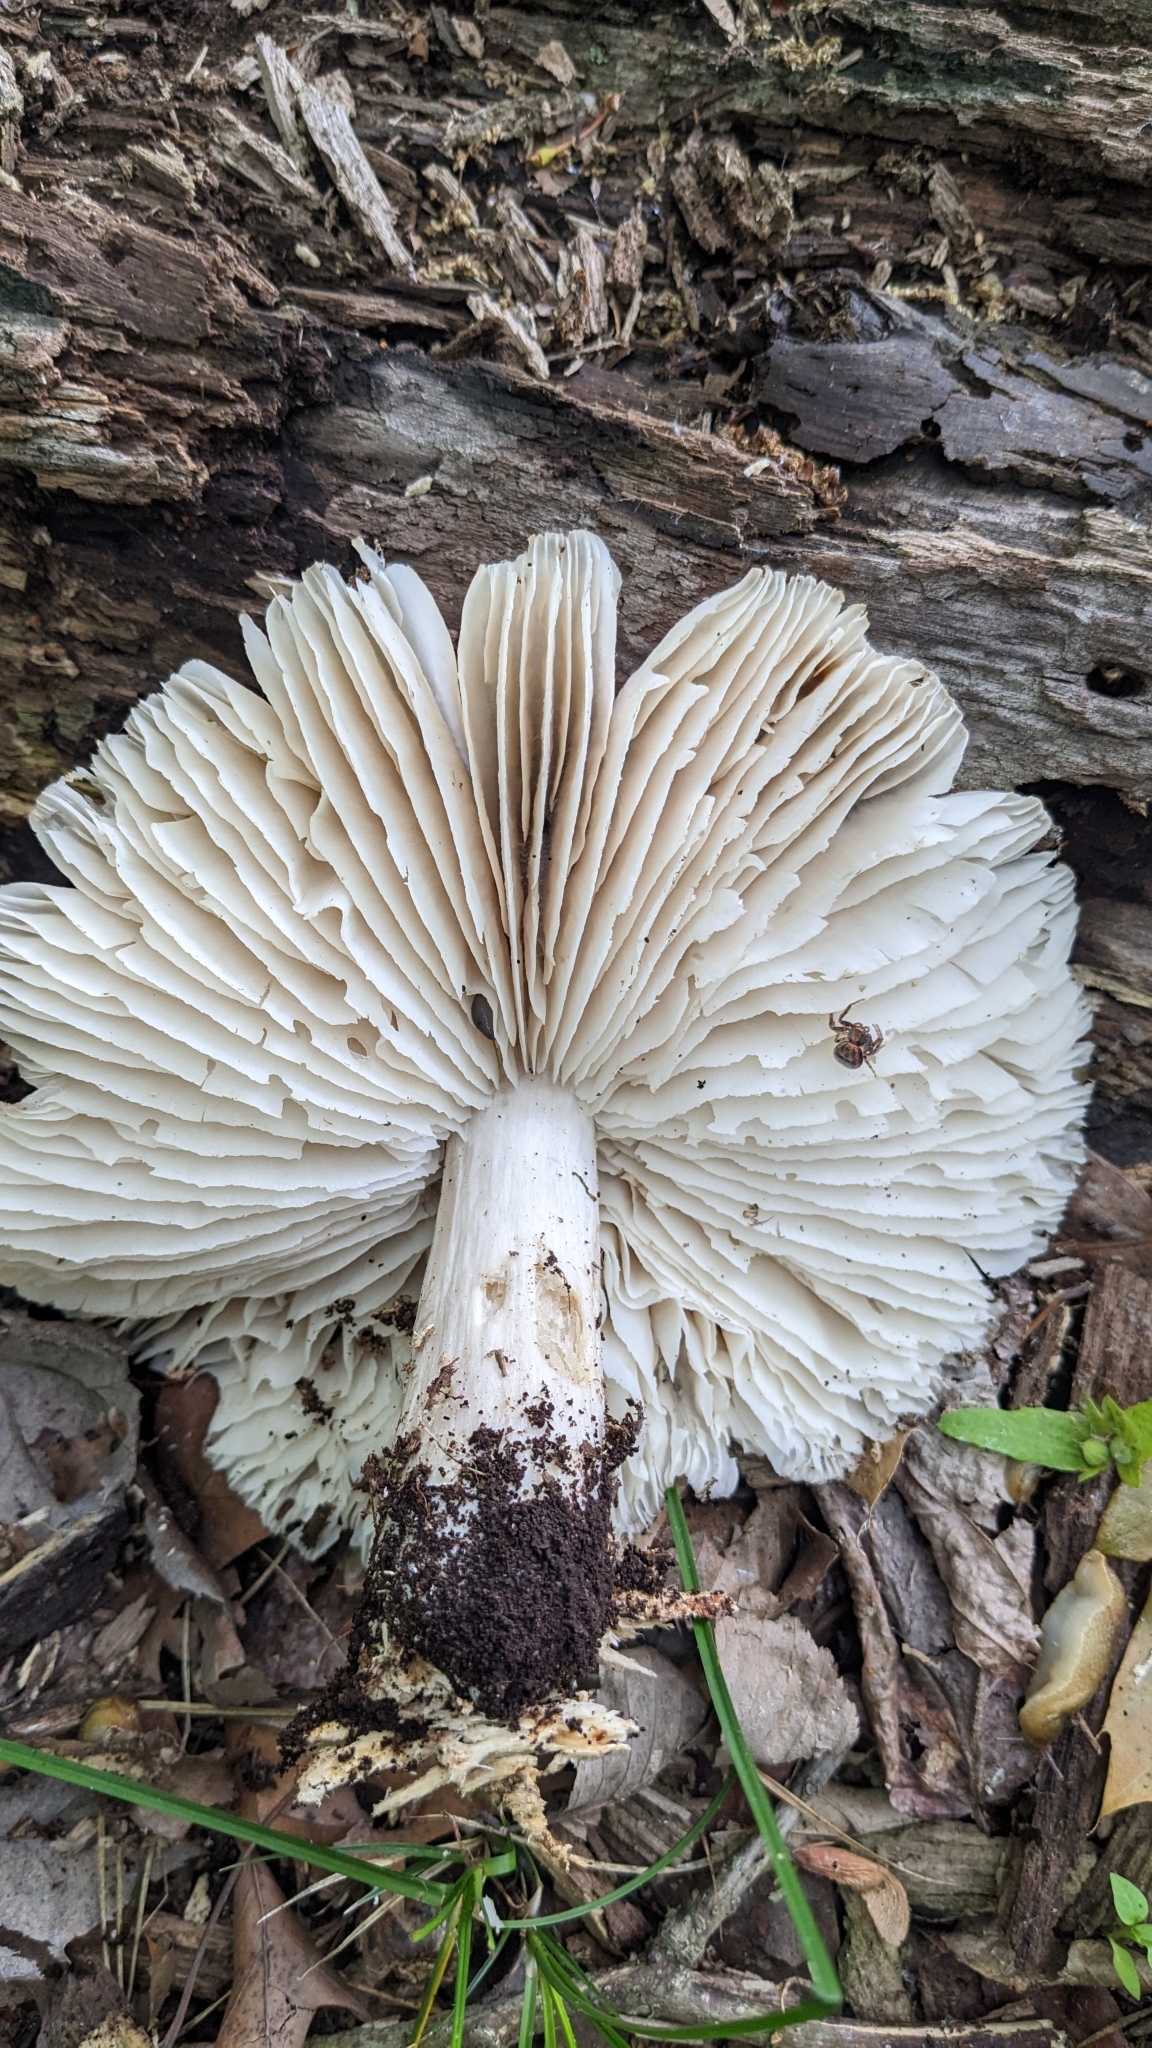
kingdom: Fungi
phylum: Basidiomycota
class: Agaricomycetes
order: Agaricales
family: Tricholomataceae
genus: Megacollybia
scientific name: Megacollybia rodmanii
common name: Eastern american platterful mushroom
